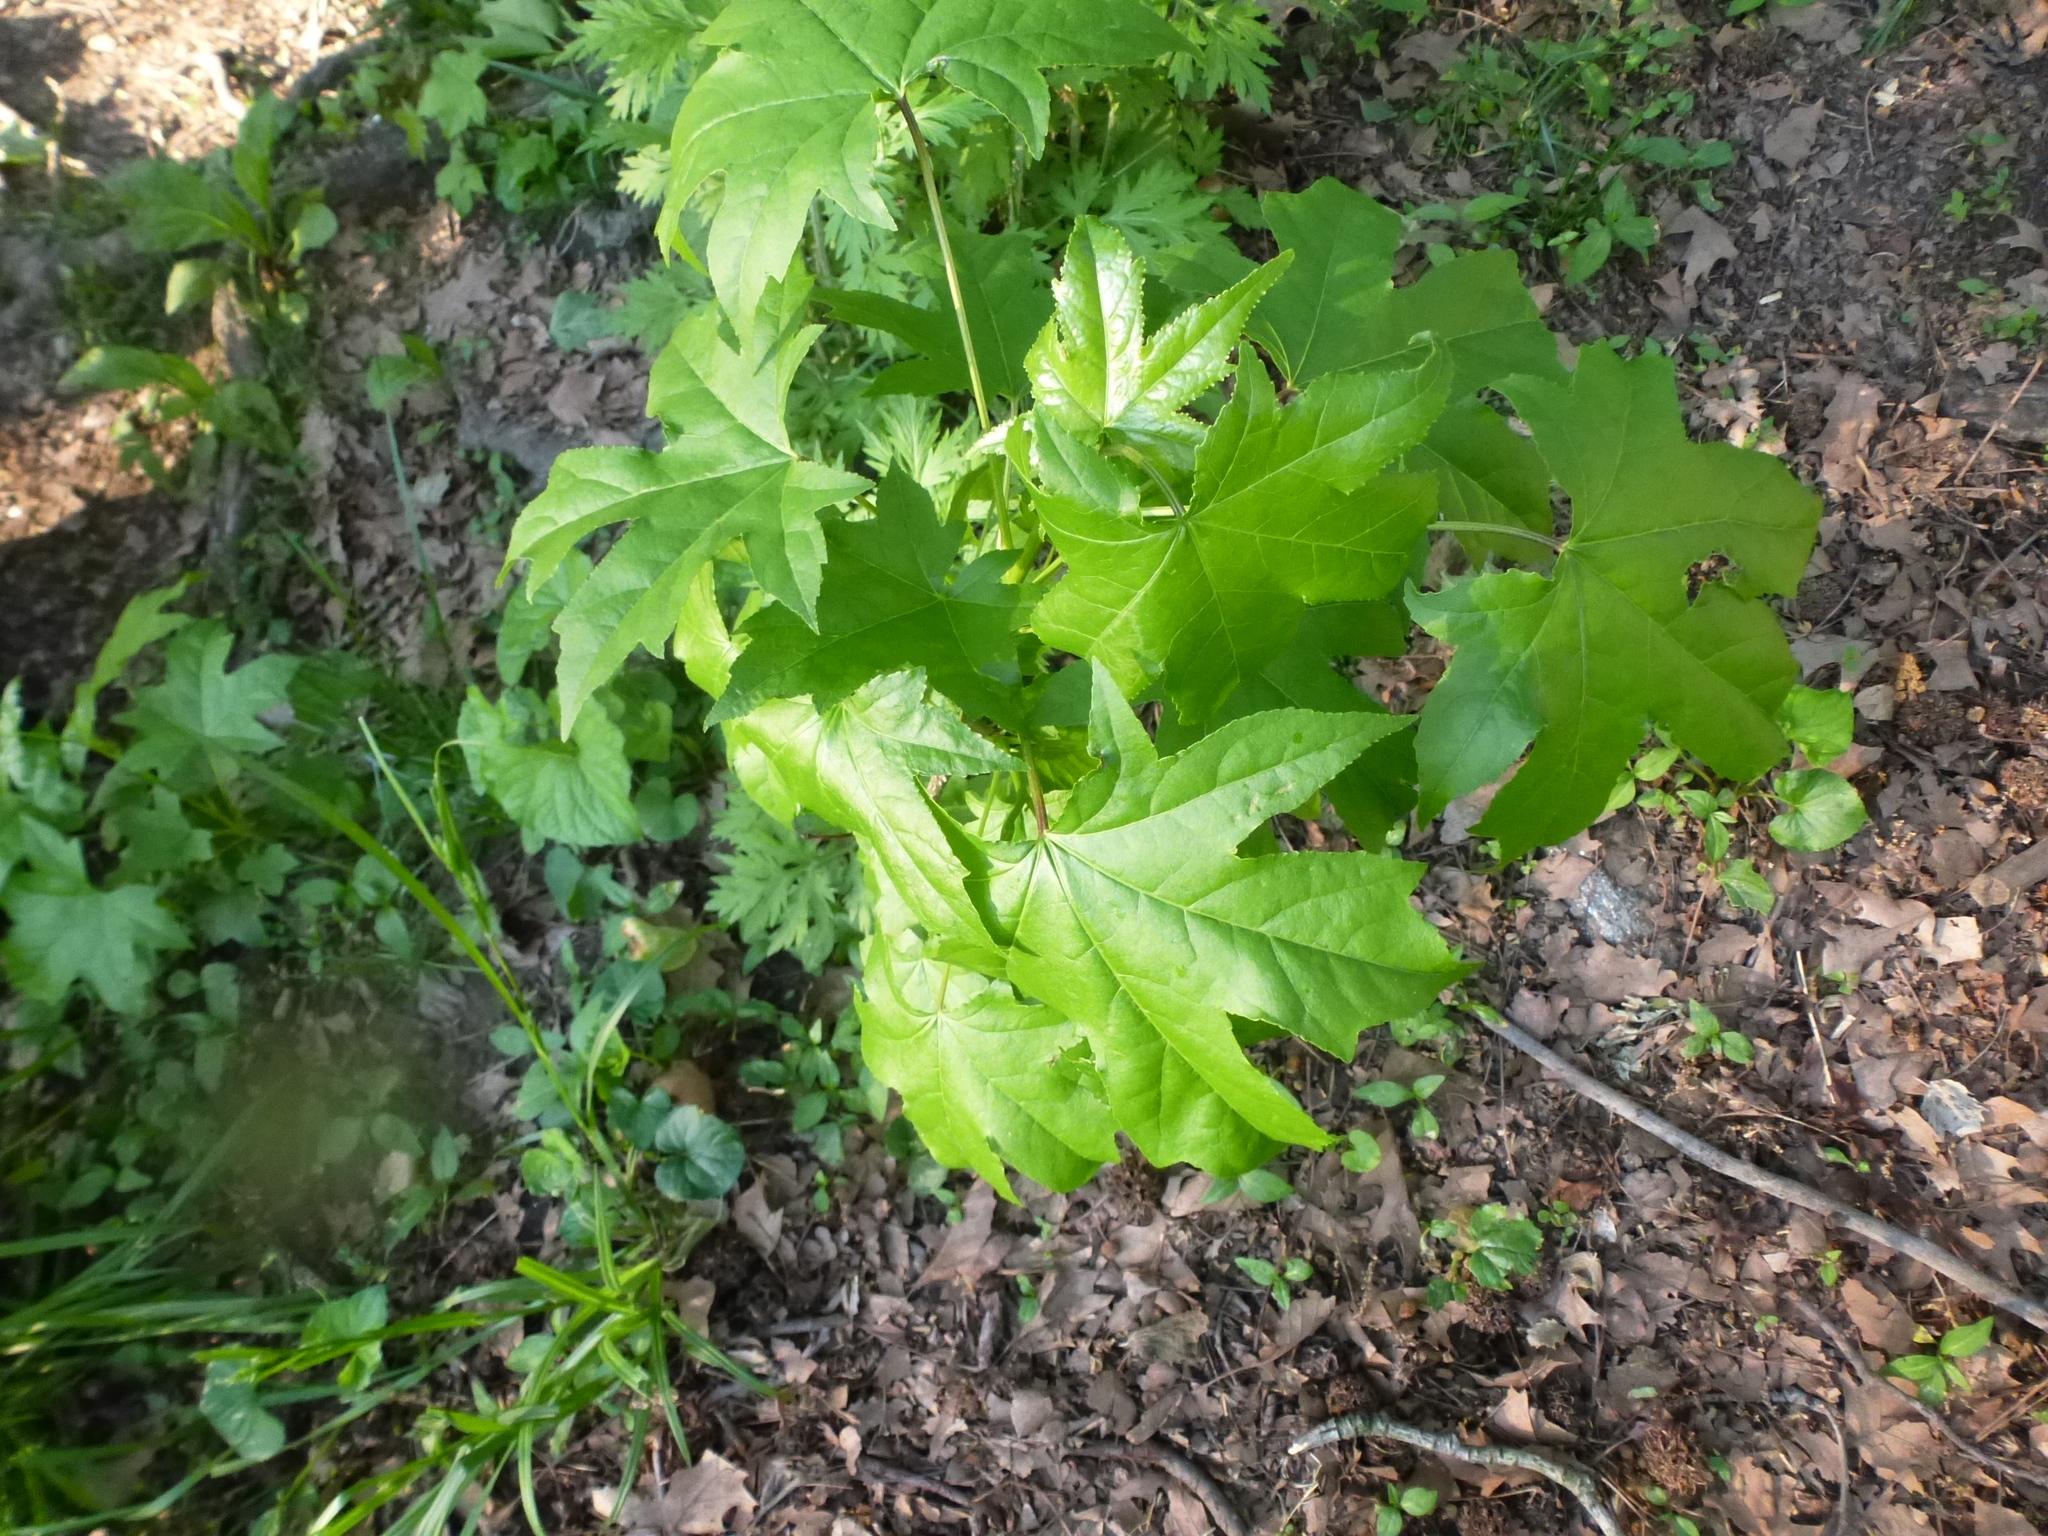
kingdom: Plantae
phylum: Tracheophyta
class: Magnoliopsida
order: Saxifragales
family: Altingiaceae
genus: Liquidambar
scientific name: Liquidambar styraciflua
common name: Sweet gum
